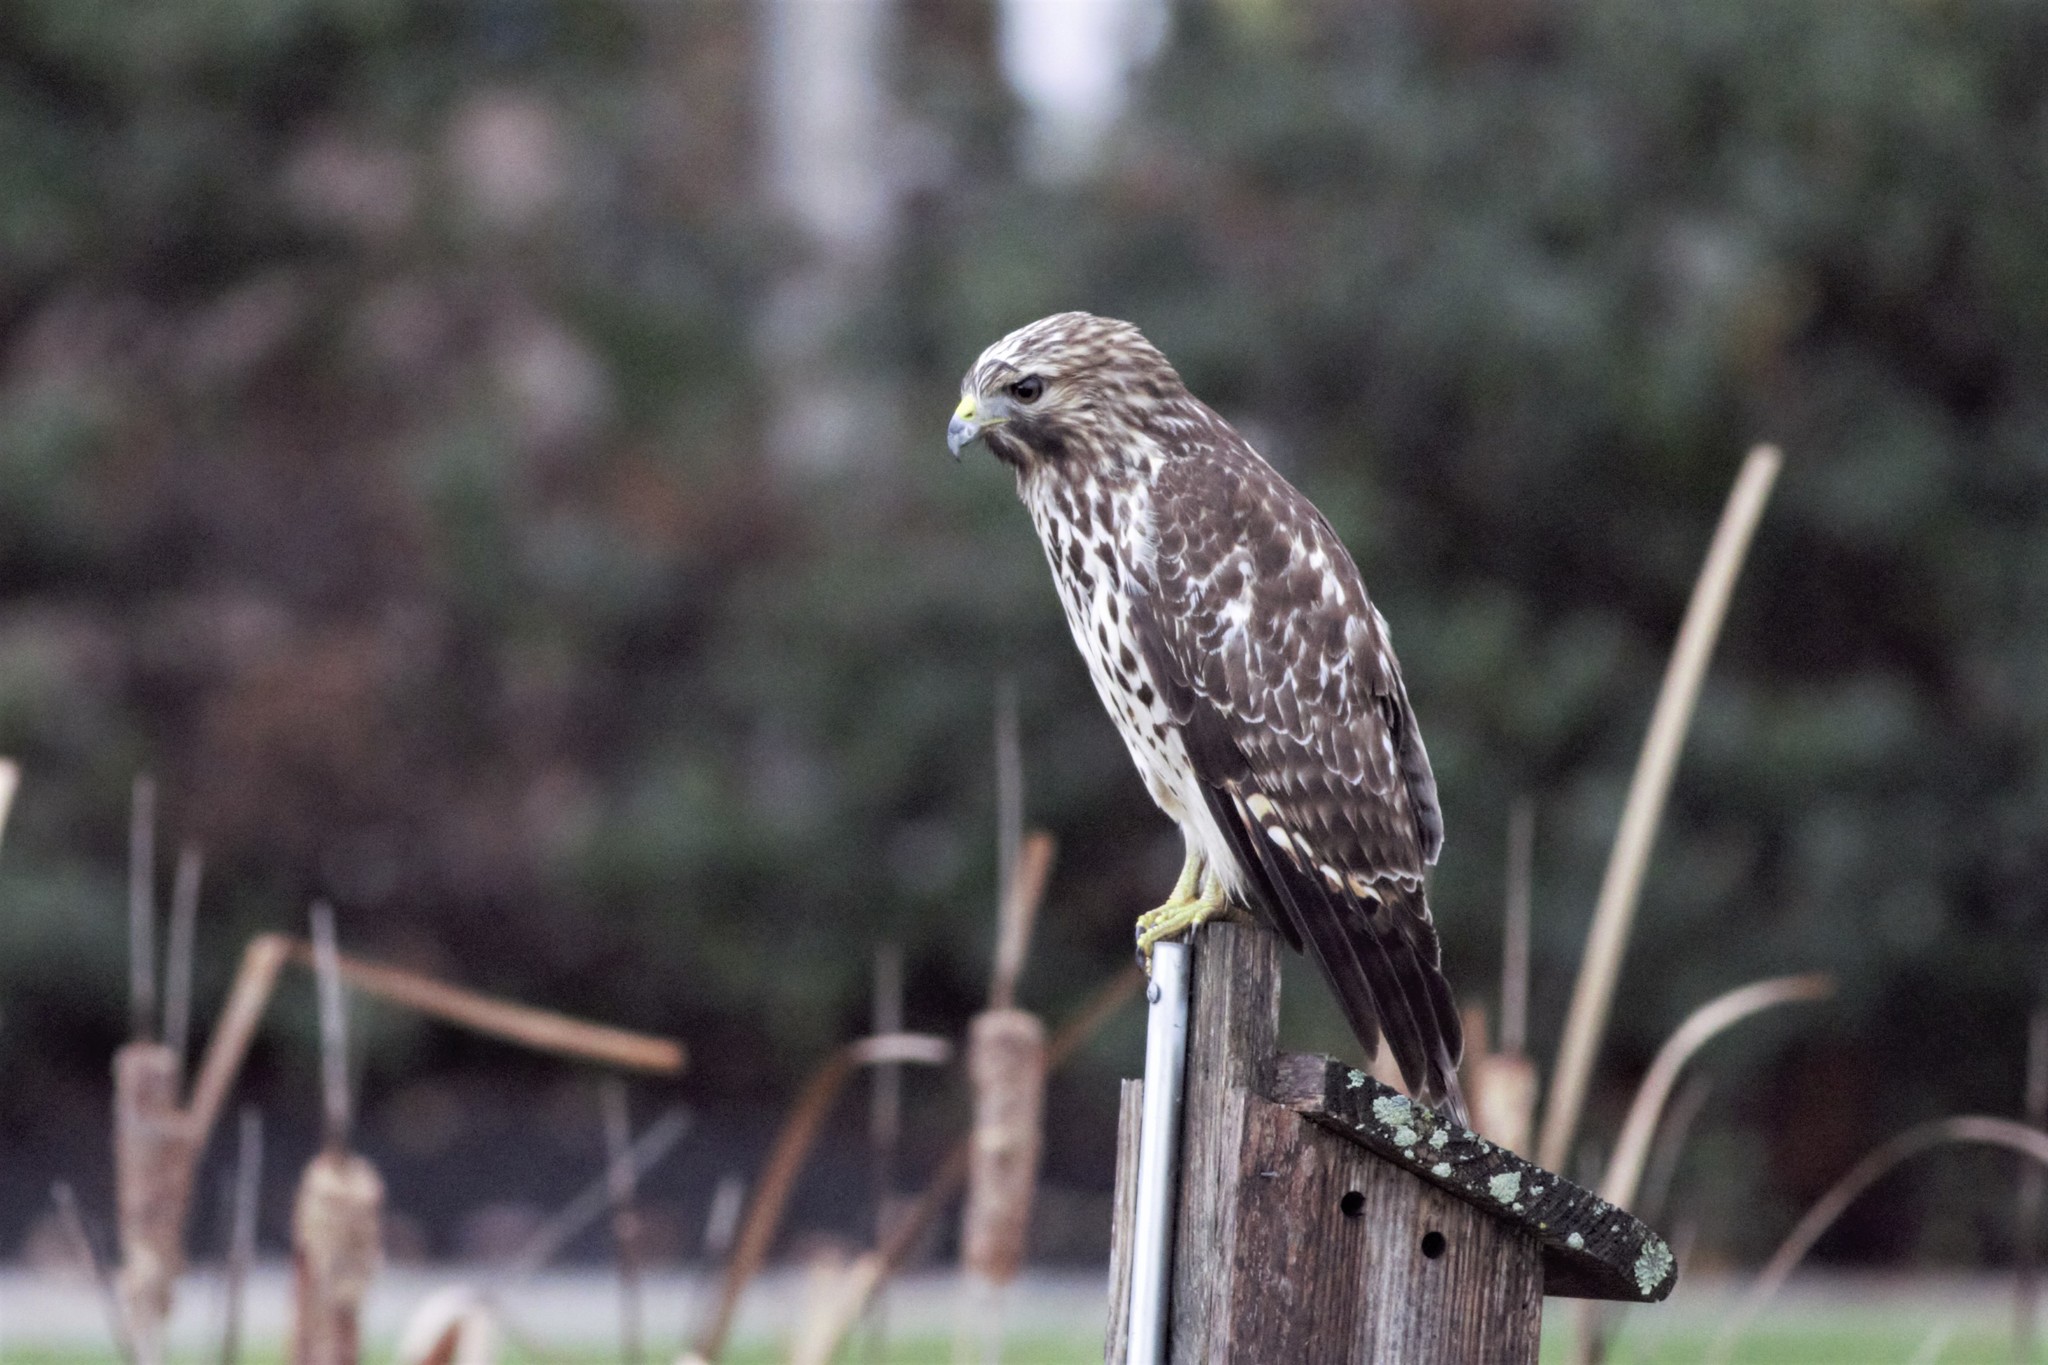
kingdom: Animalia
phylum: Chordata
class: Aves
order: Accipitriformes
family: Accipitridae
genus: Buteo
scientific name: Buteo lineatus
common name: Red-shouldered hawk
